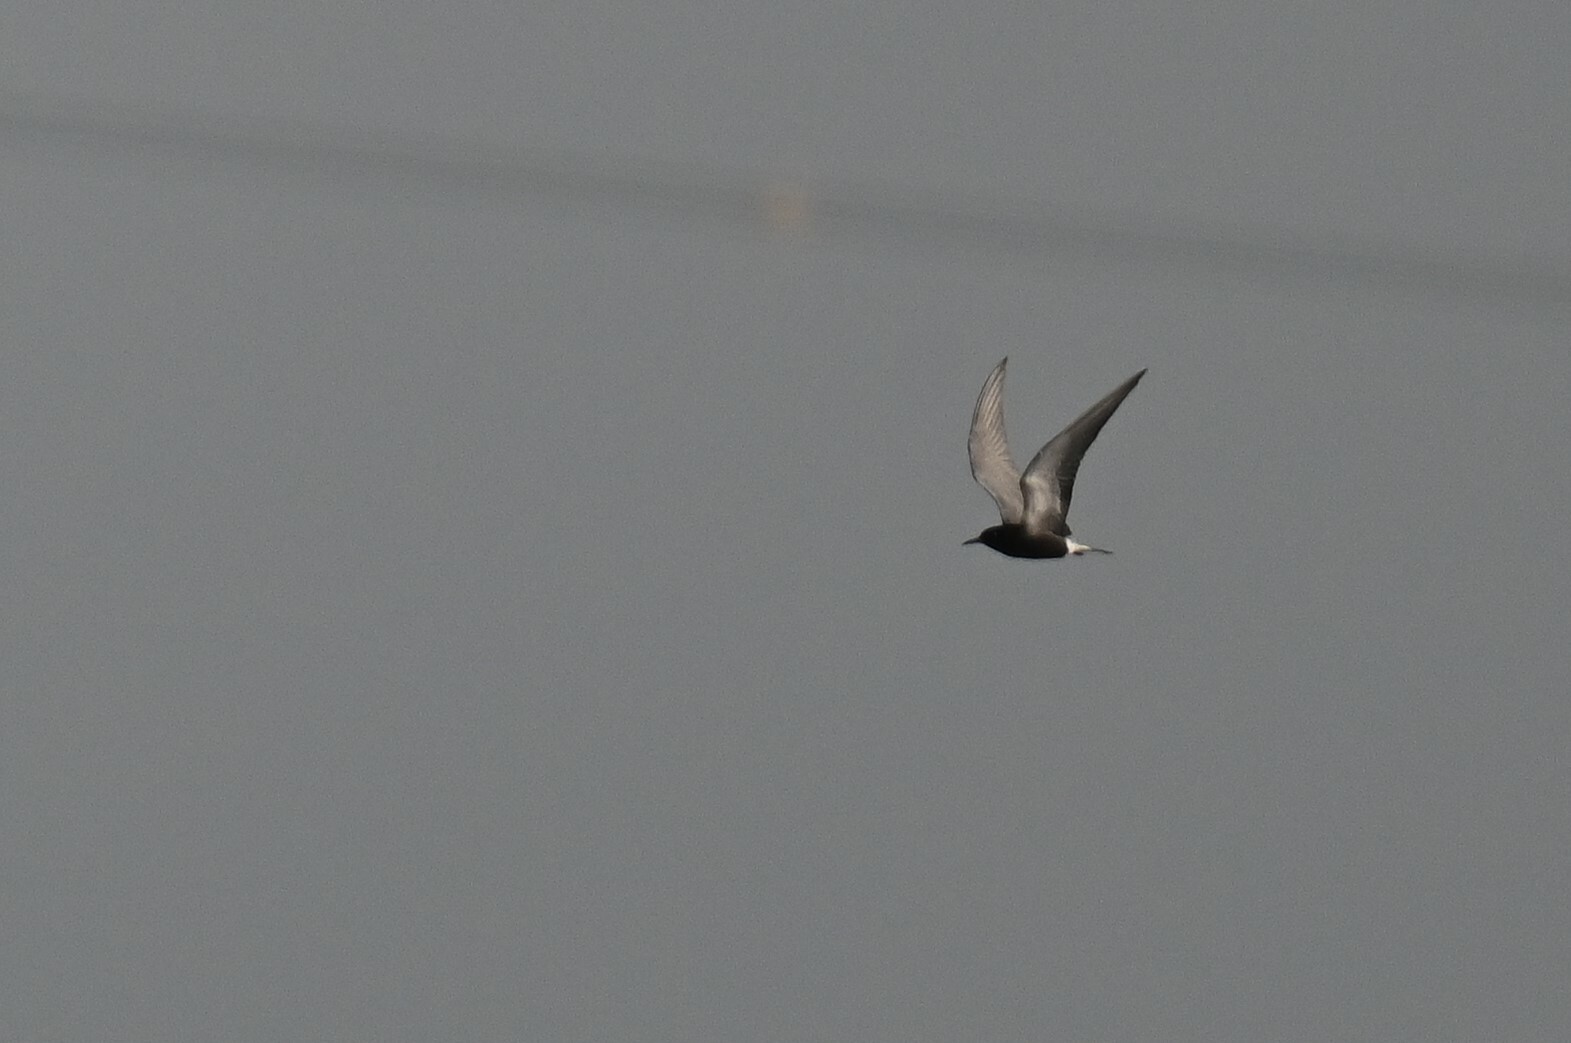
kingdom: Animalia
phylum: Chordata
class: Aves
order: Charadriiformes
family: Laridae
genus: Chlidonias
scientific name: Chlidonias niger
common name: Black tern
